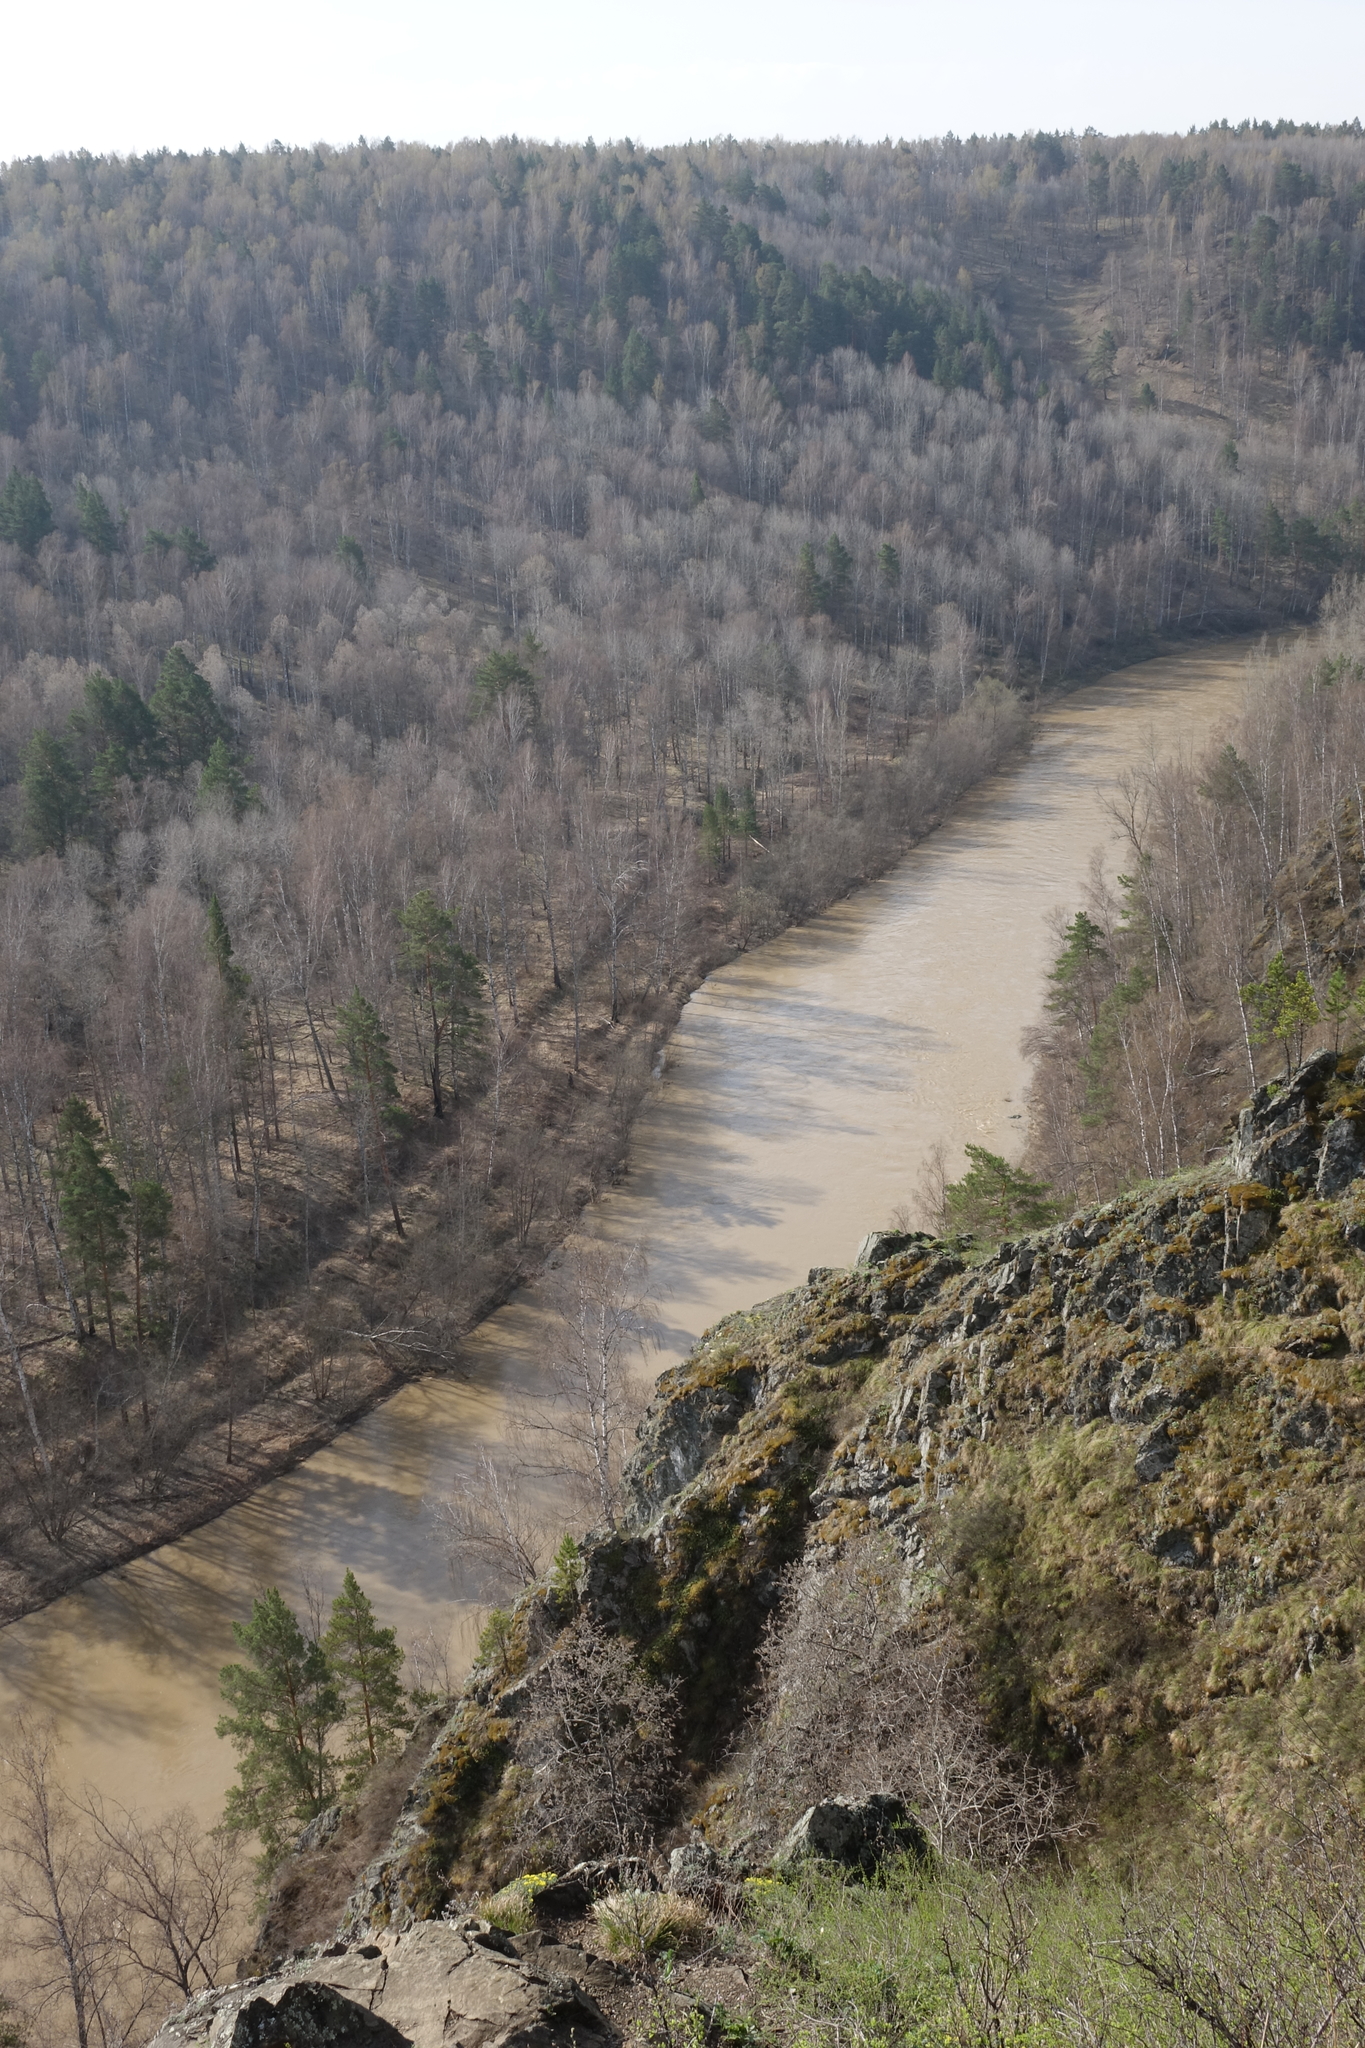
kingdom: Plantae
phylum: Tracheophyta
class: Pinopsida
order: Pinales
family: Pinaceae
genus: Pinus
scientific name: Pinus sylvestris
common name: Scots pine
